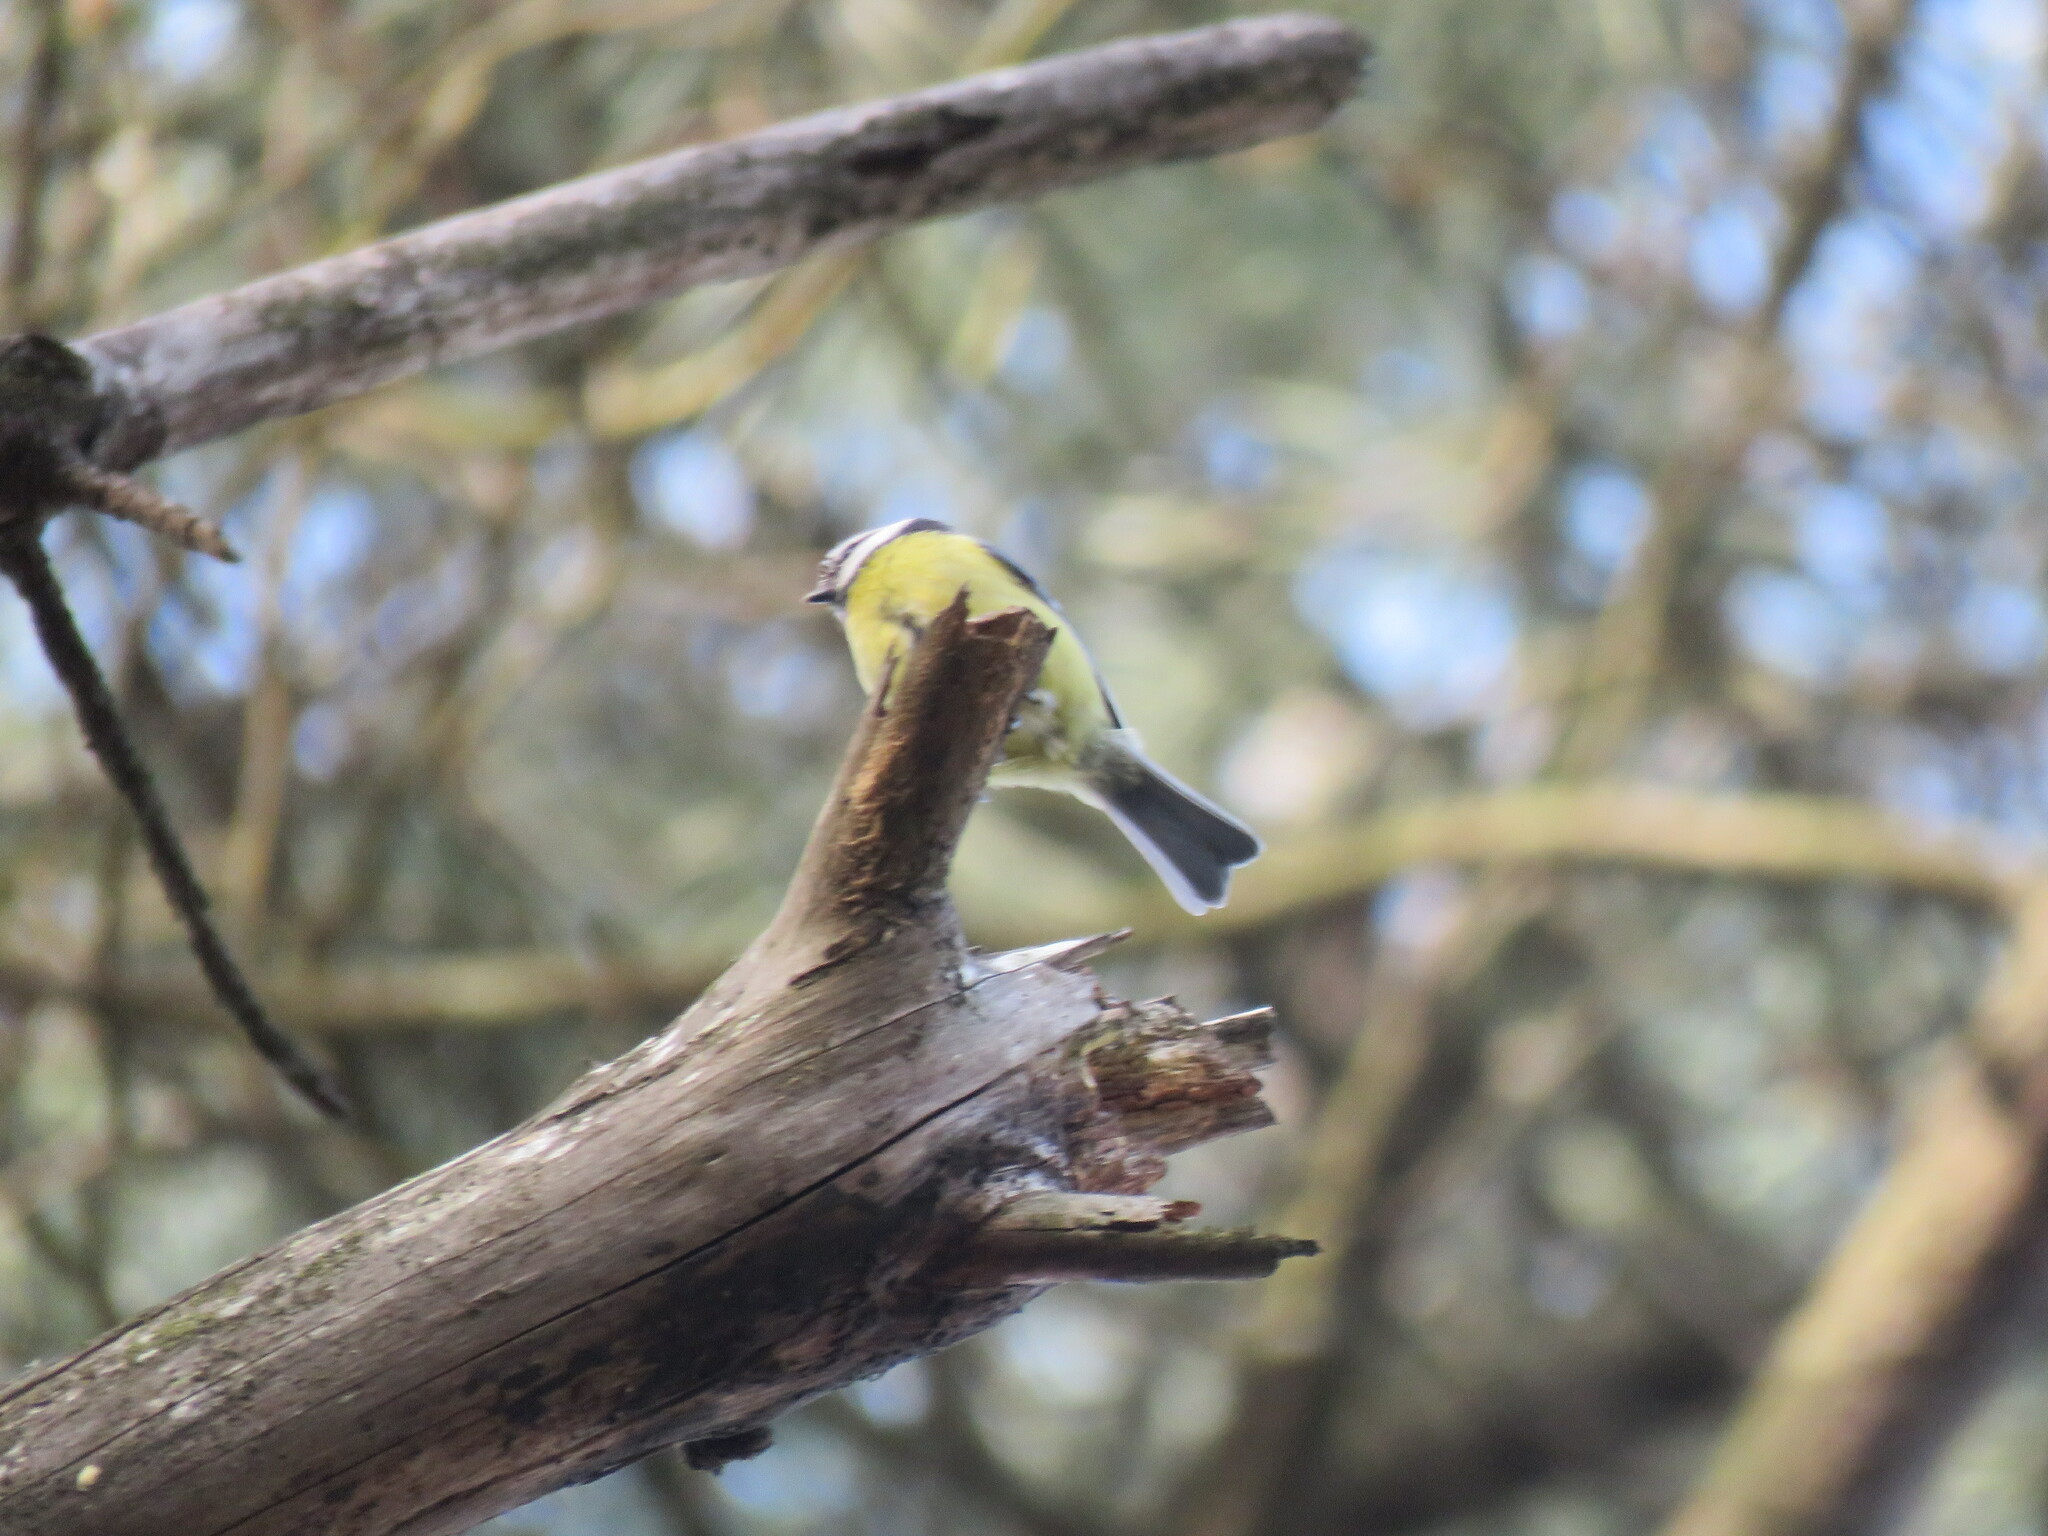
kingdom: Animalia
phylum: Chordata
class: Aves
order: Passeriformes
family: Paridae
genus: Cyanistes
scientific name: Cyanistes caeruleus
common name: Eurasian blue tit
